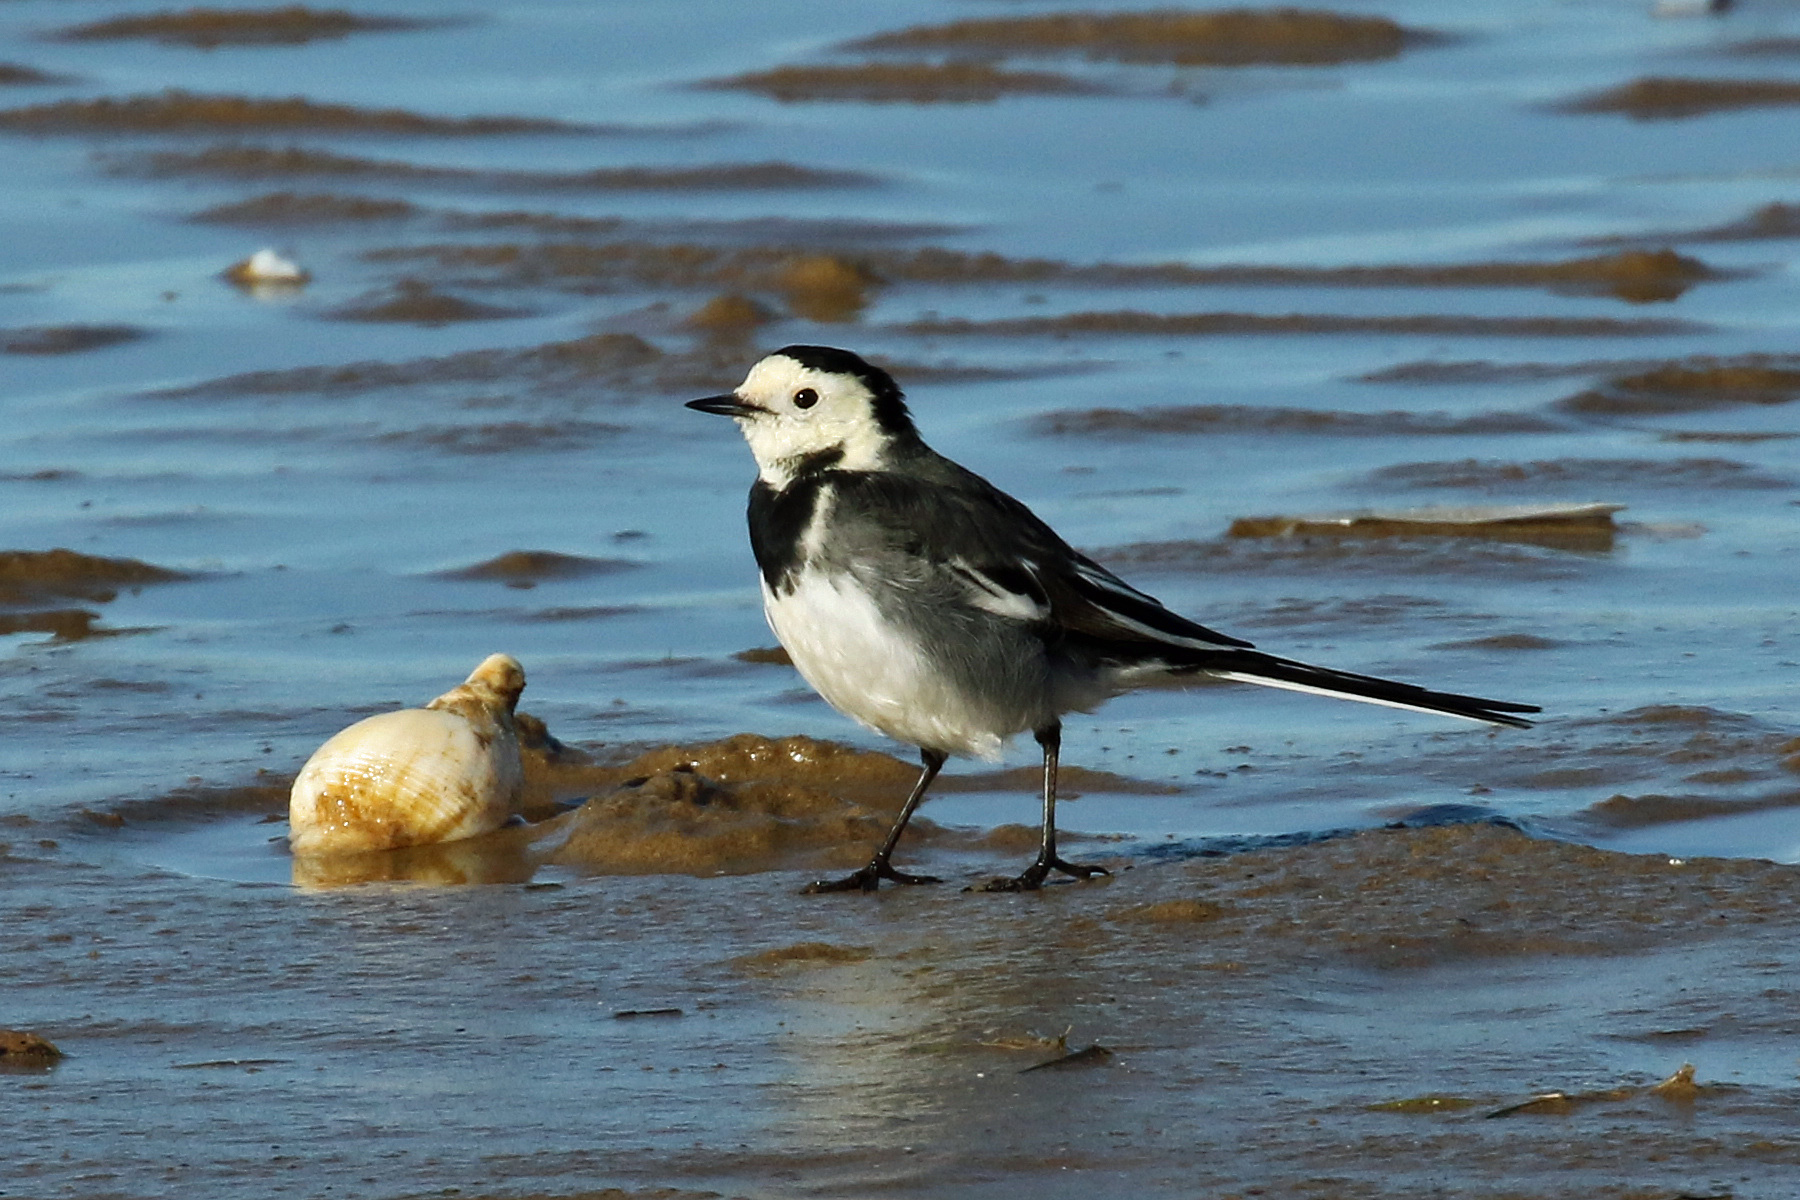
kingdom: Animalia
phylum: Chordata
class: Aves
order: Passeriformes
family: Motacillidae
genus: Motacilla
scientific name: Motacilla alba
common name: White wagtail
